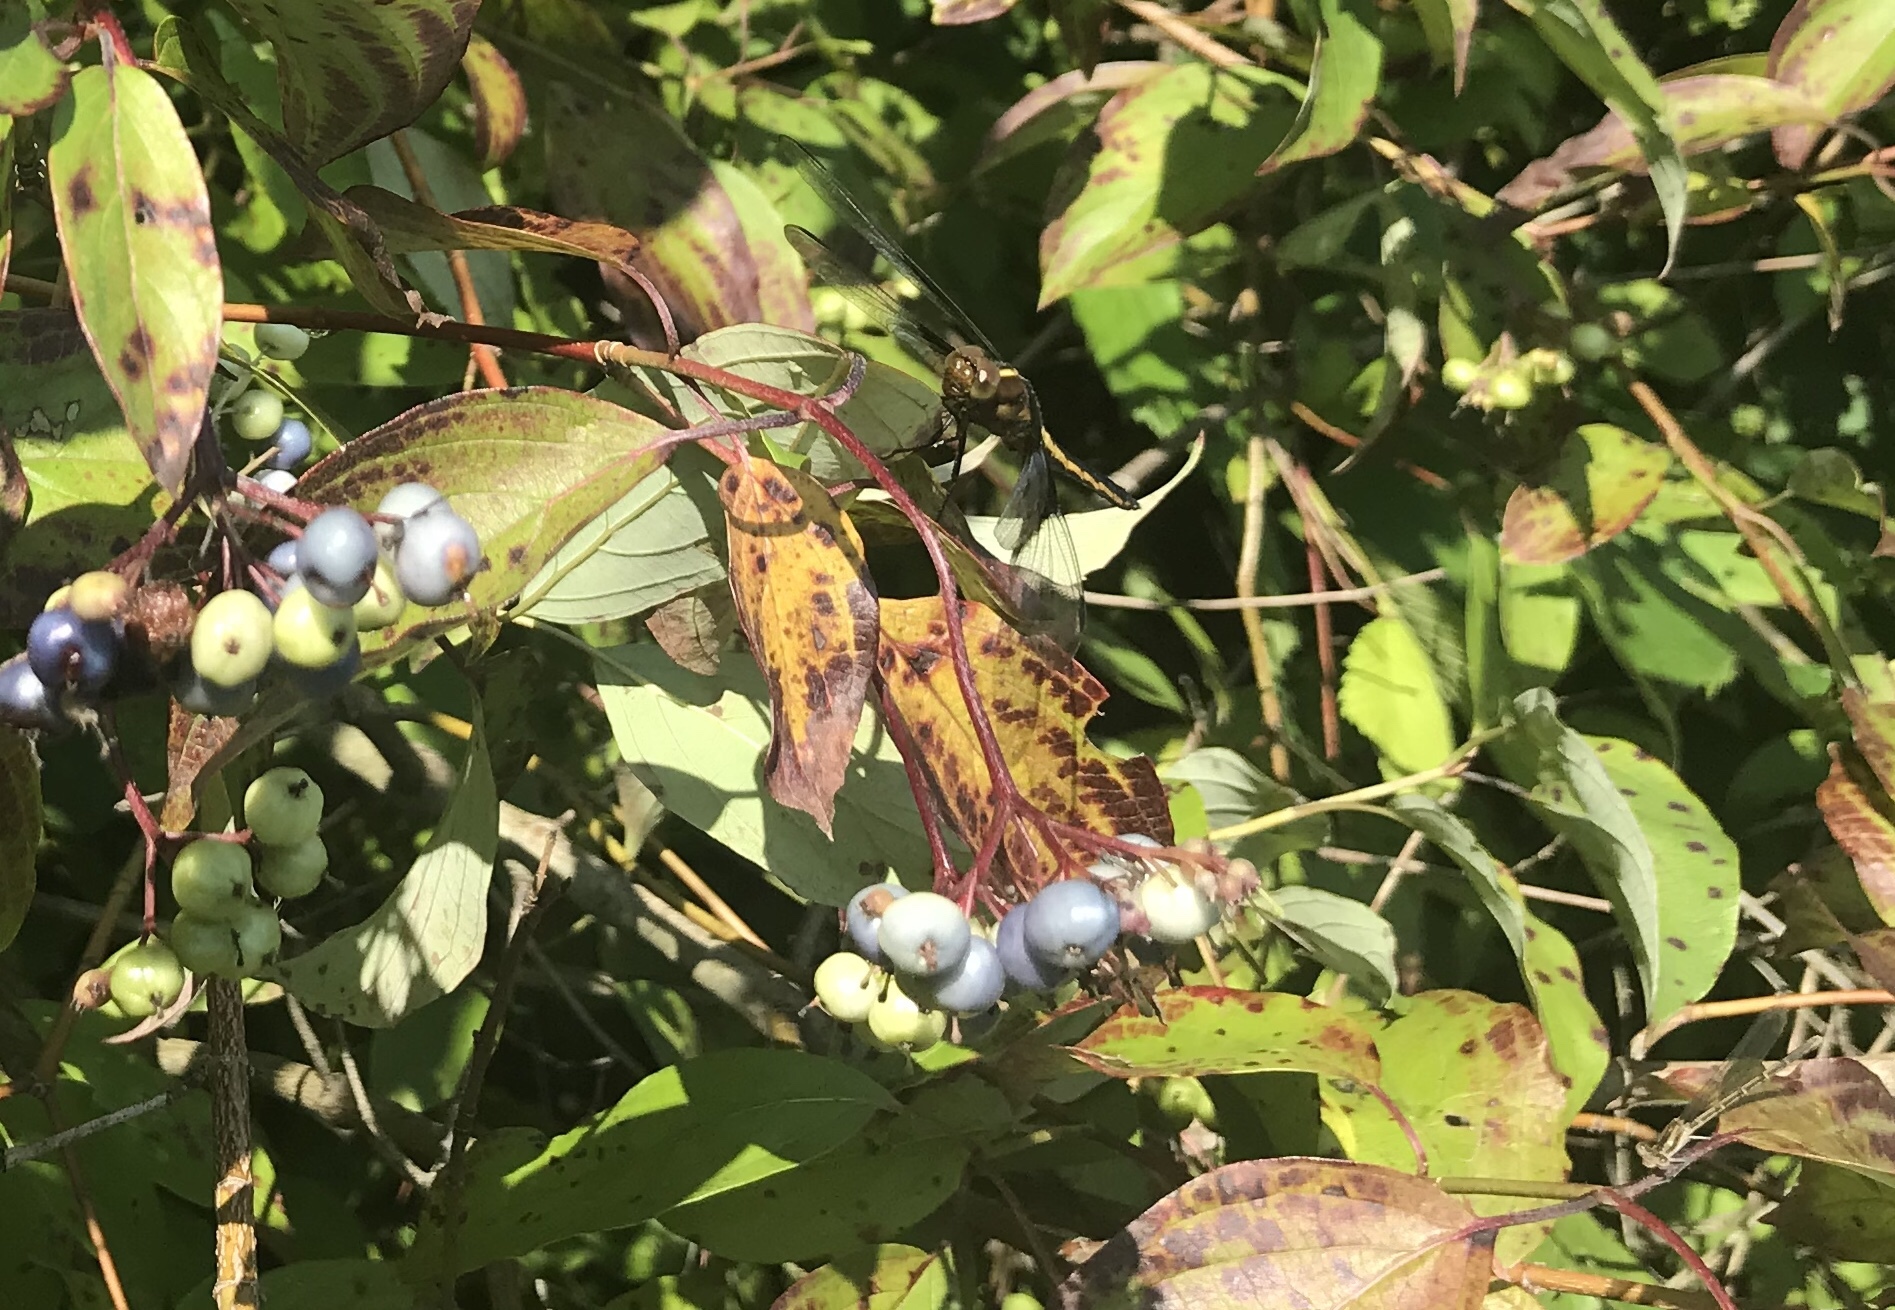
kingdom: Animalia
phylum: Arthropoda
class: Insecta
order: Odonata
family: Libellulidae
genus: Libellula
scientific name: Libellula luctuosa
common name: Widow skimmer
